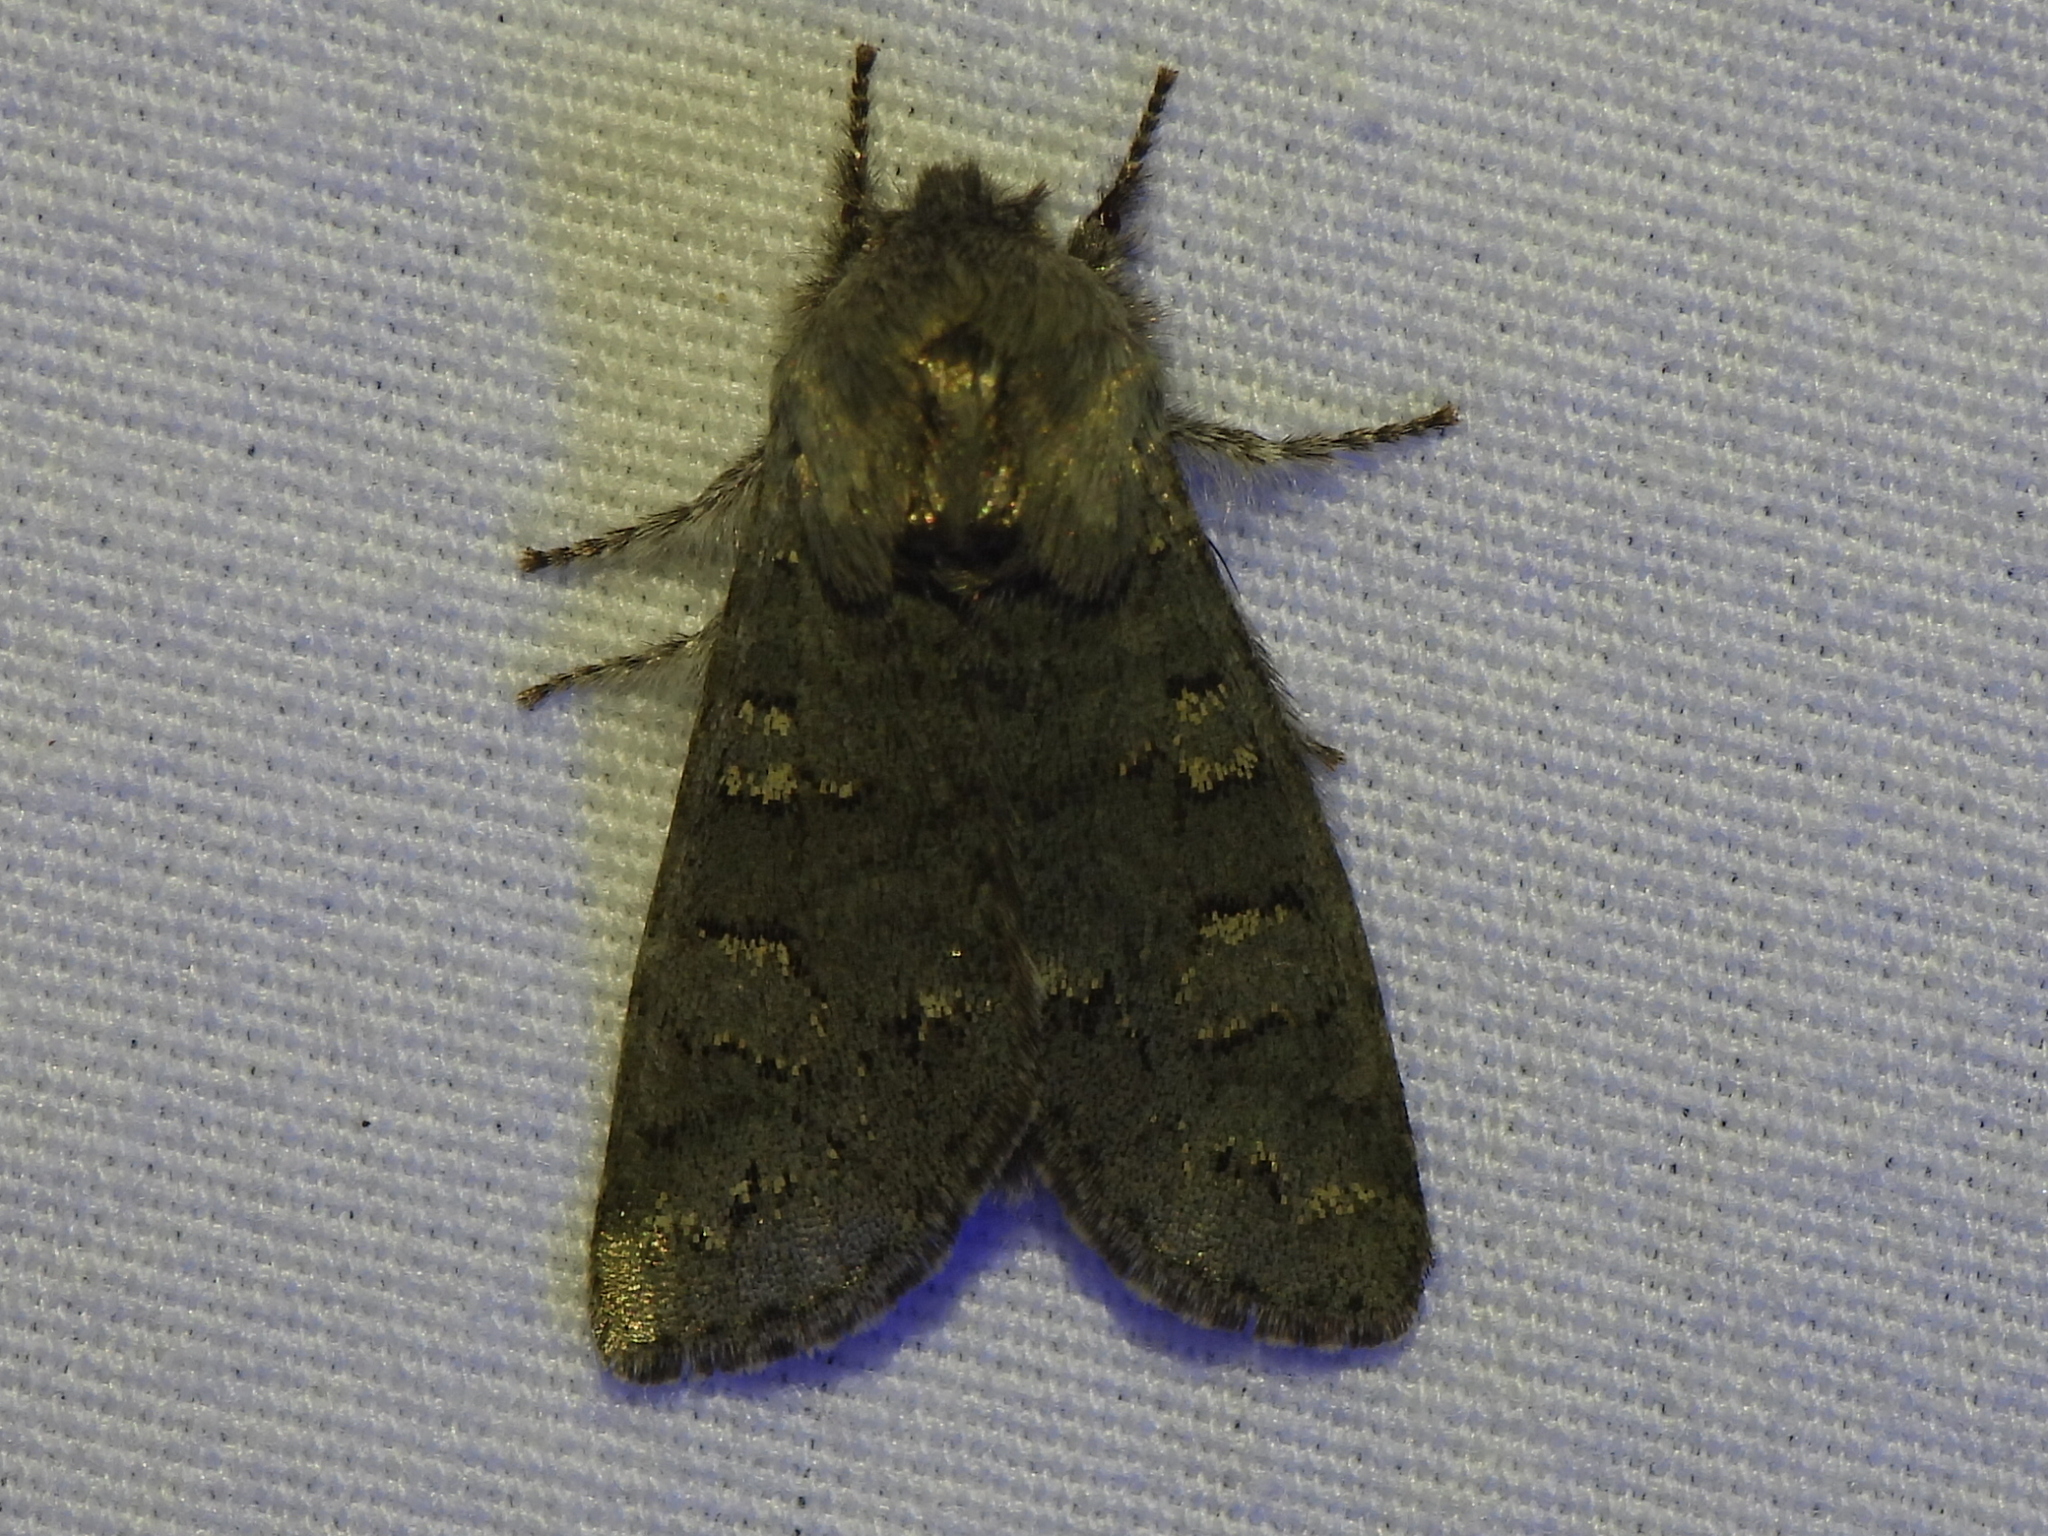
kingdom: Animalia
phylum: Arthropoda
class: Insecta
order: Lepidoptera
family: Noctuidae
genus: Psaphida
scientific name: Psaphida rolandi
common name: Roland's sallow
